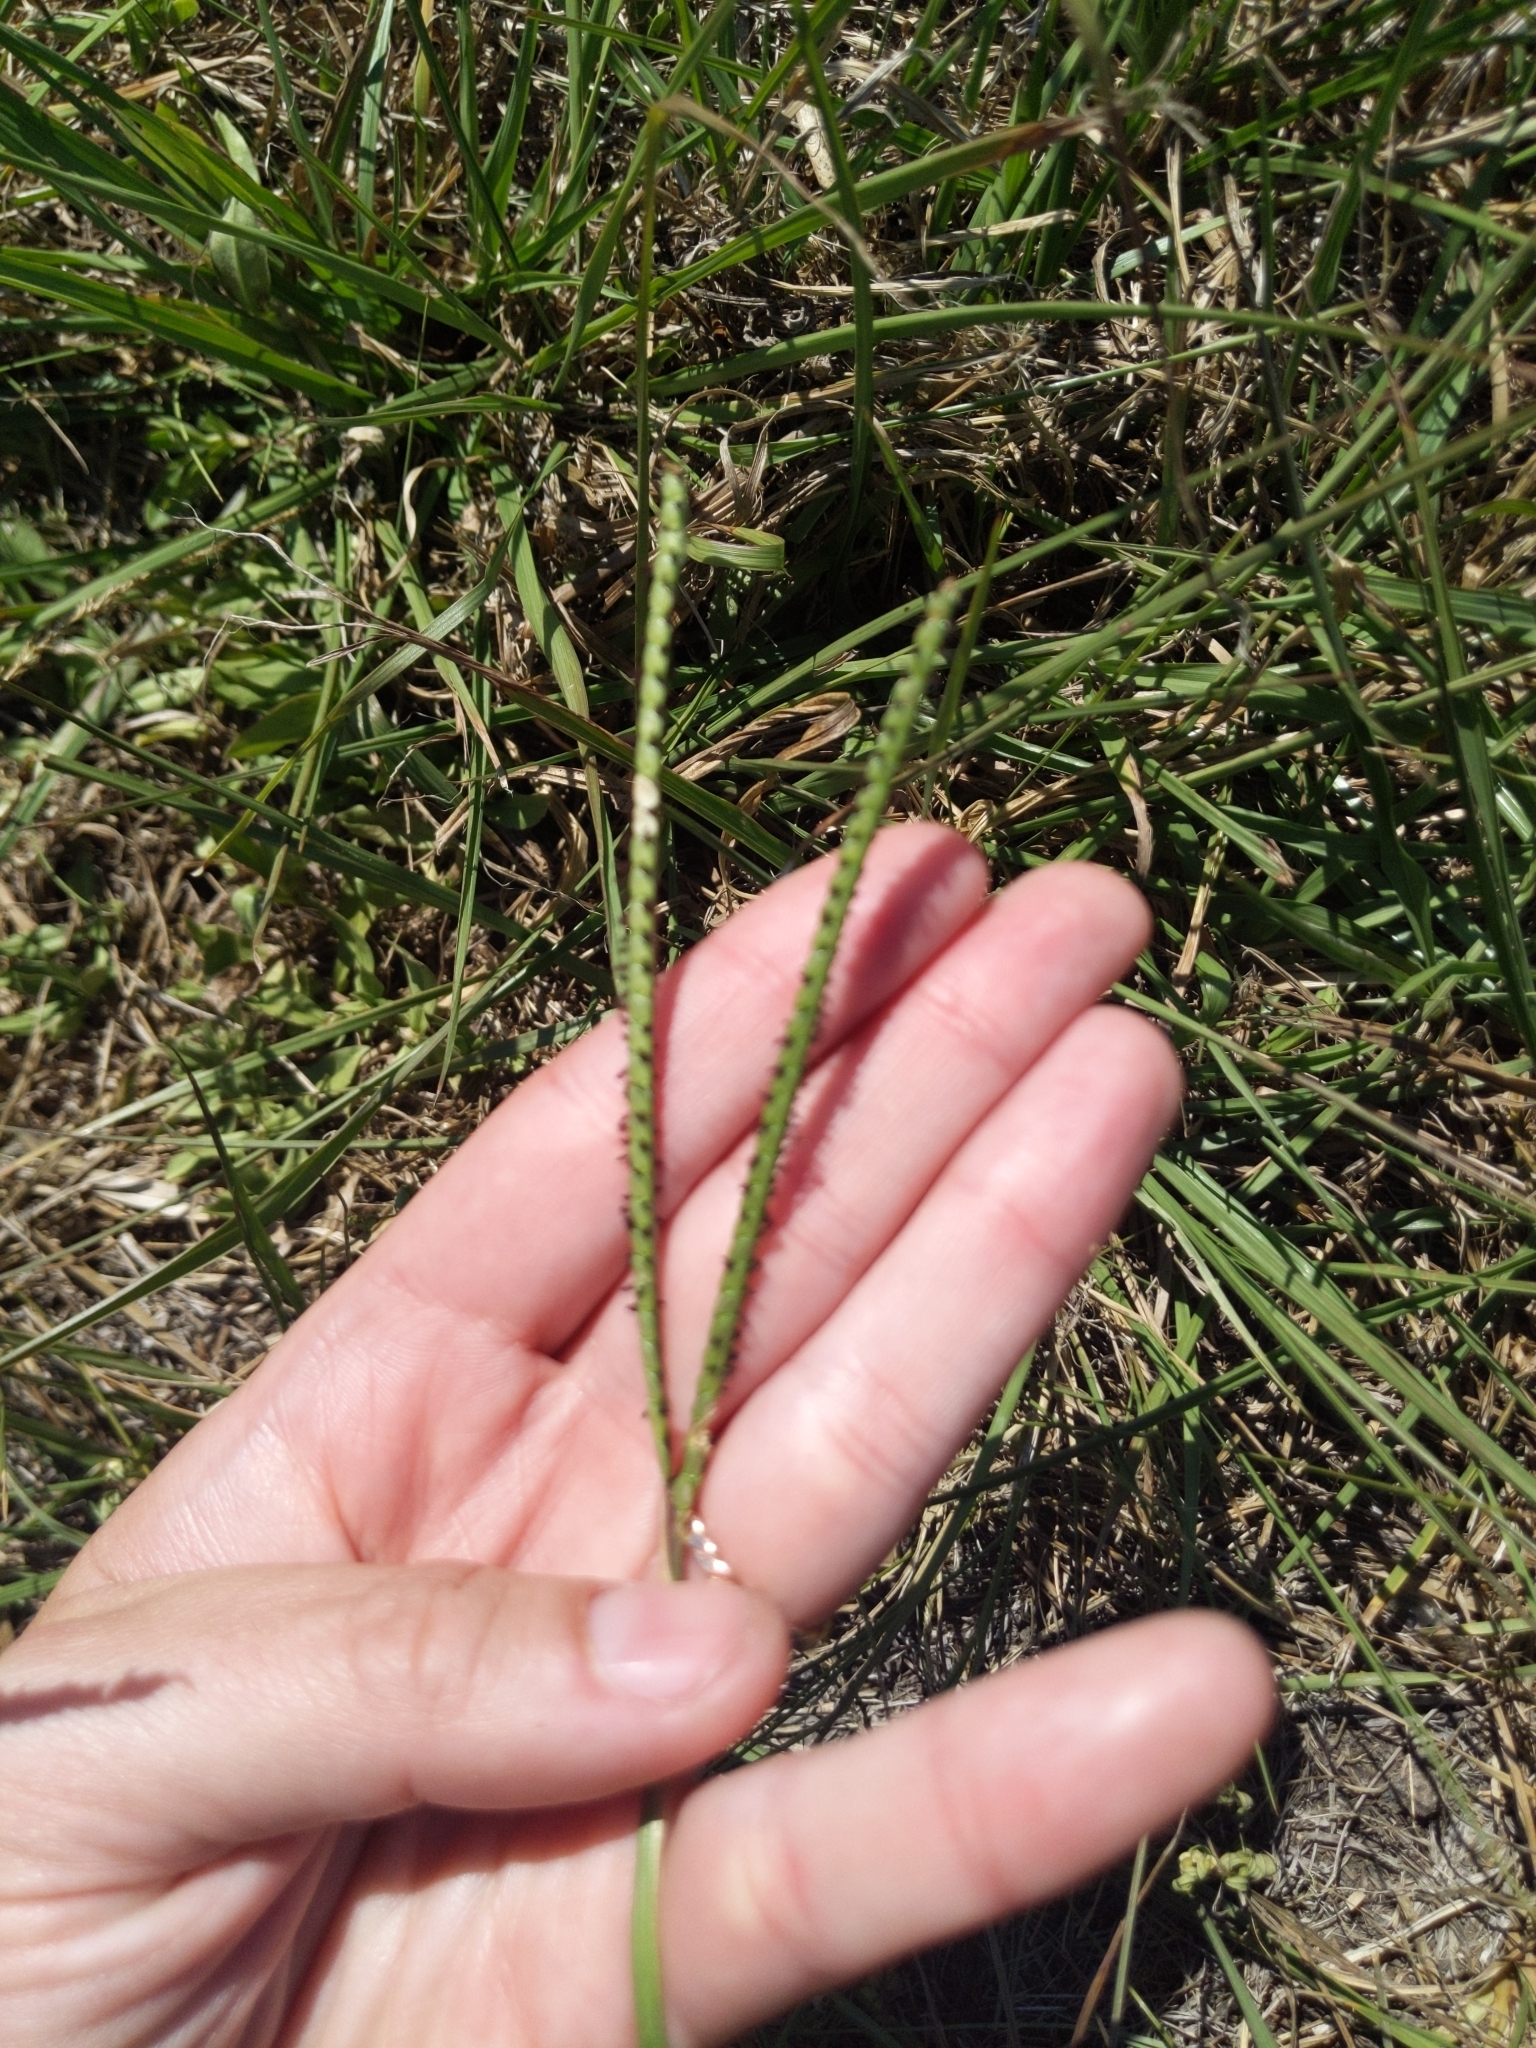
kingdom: Plantae
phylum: Tracheophyta
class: Liliopsida
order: Poales
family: Poaceae
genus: Paspalum
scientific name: Paspalum notatum
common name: Bahiagrass
